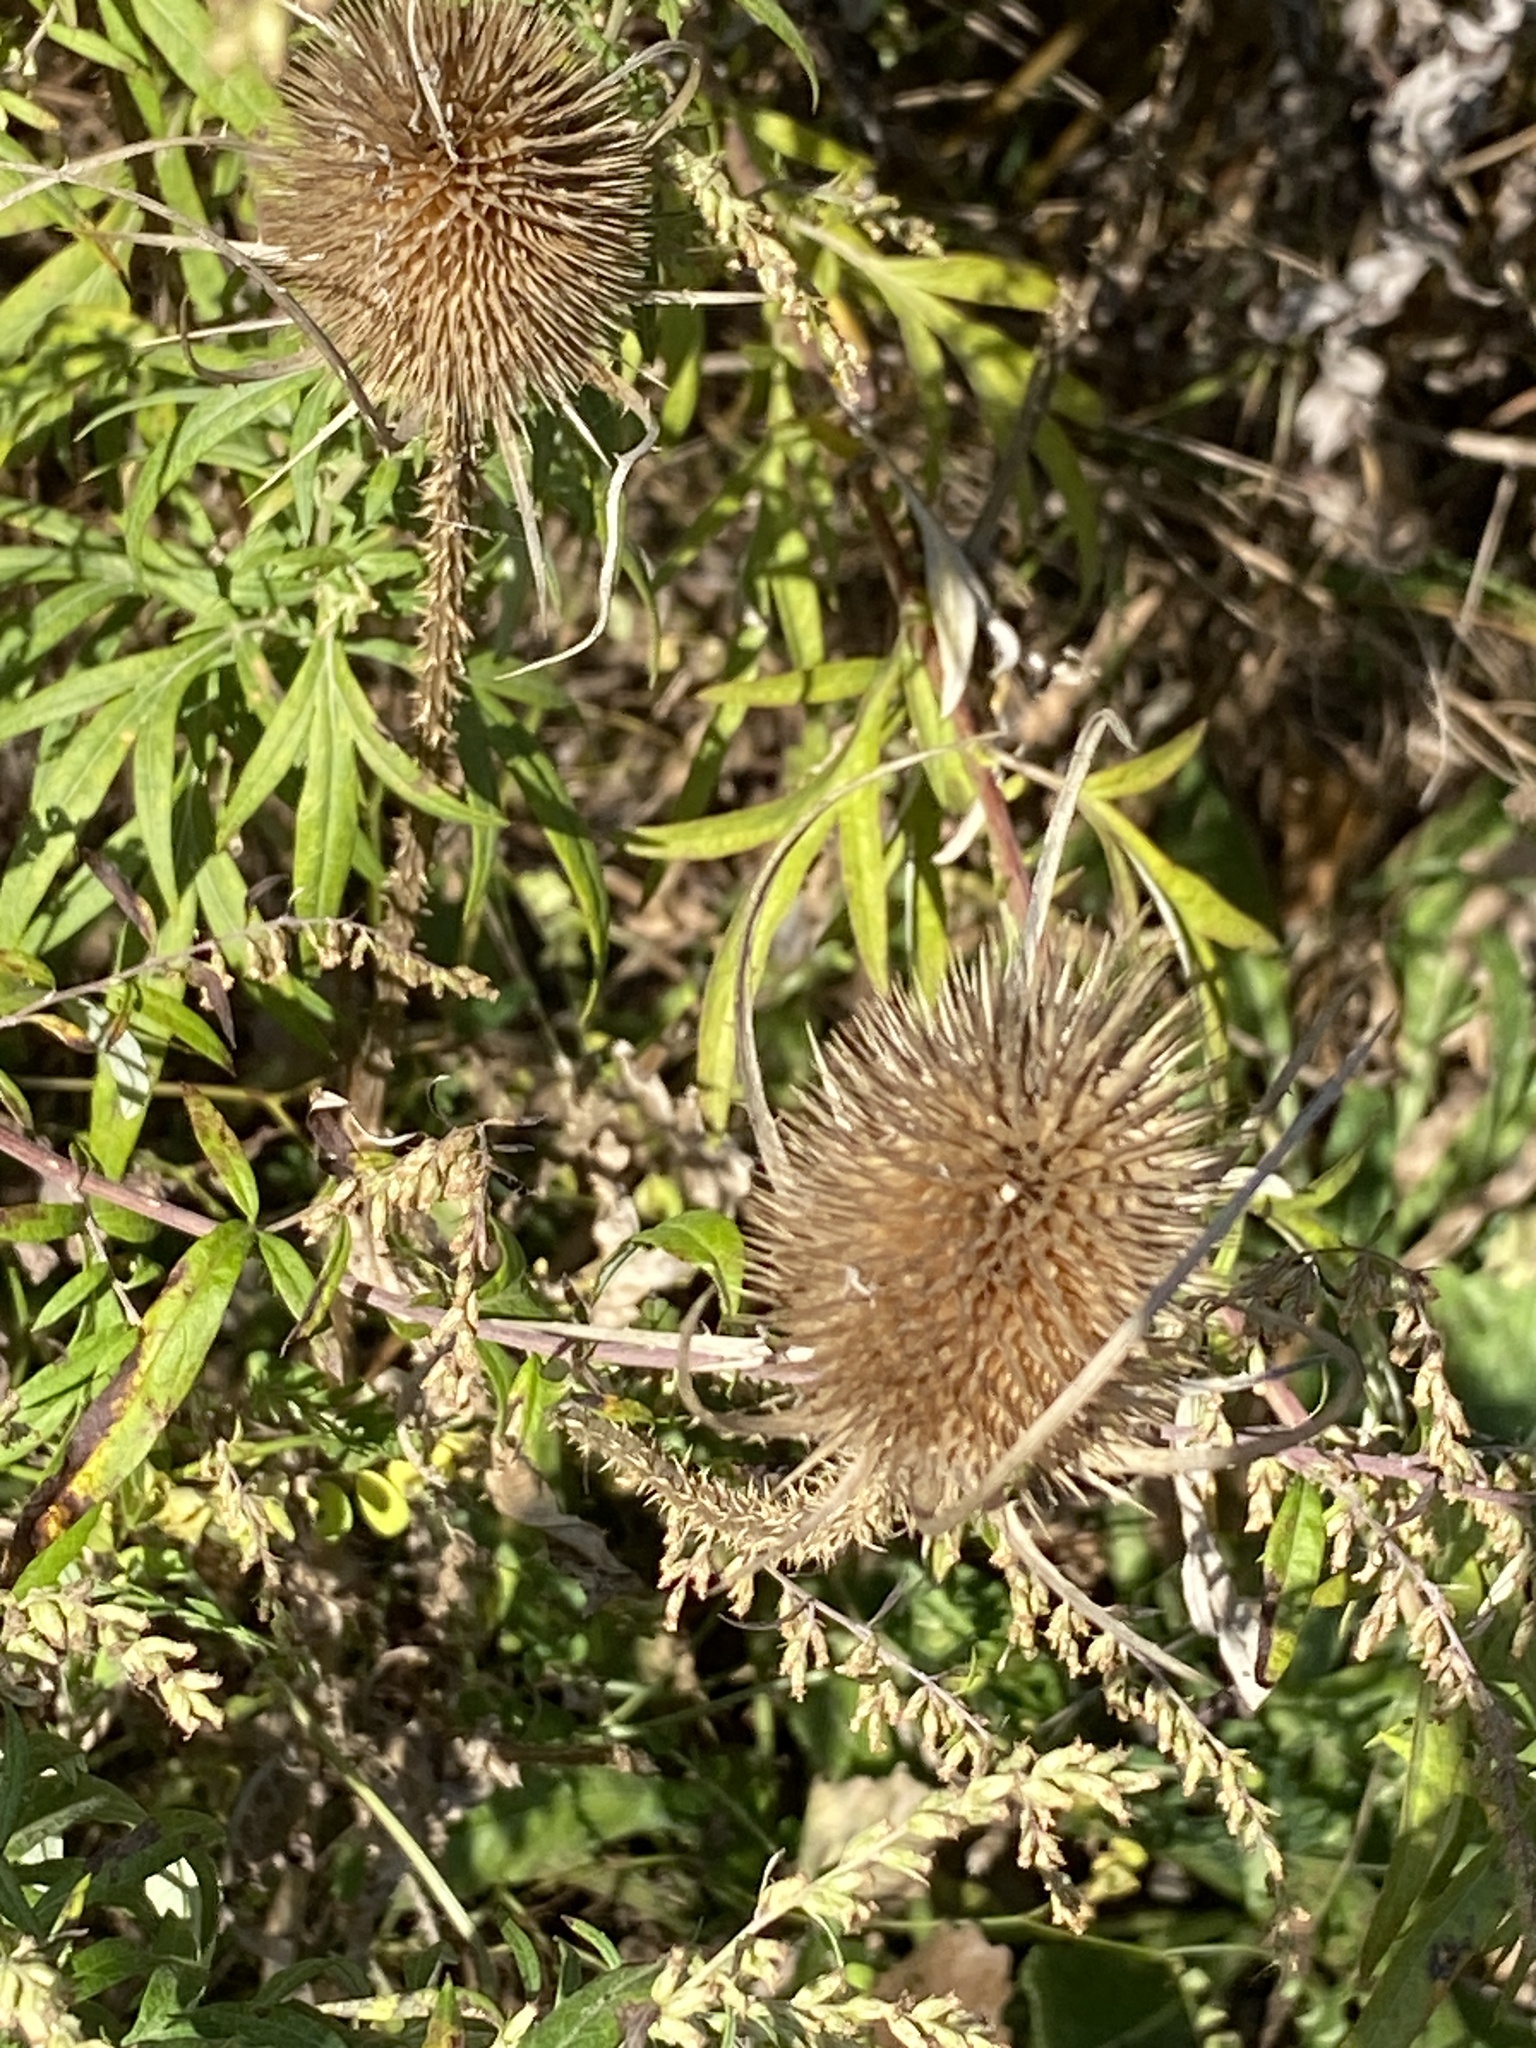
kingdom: Plantae
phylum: Tracheophyta
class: Magnoliopsida
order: Dipsacales
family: Caprifoliaceae
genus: Dipsacus
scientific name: Dipsacus fullonum
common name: Teasel
